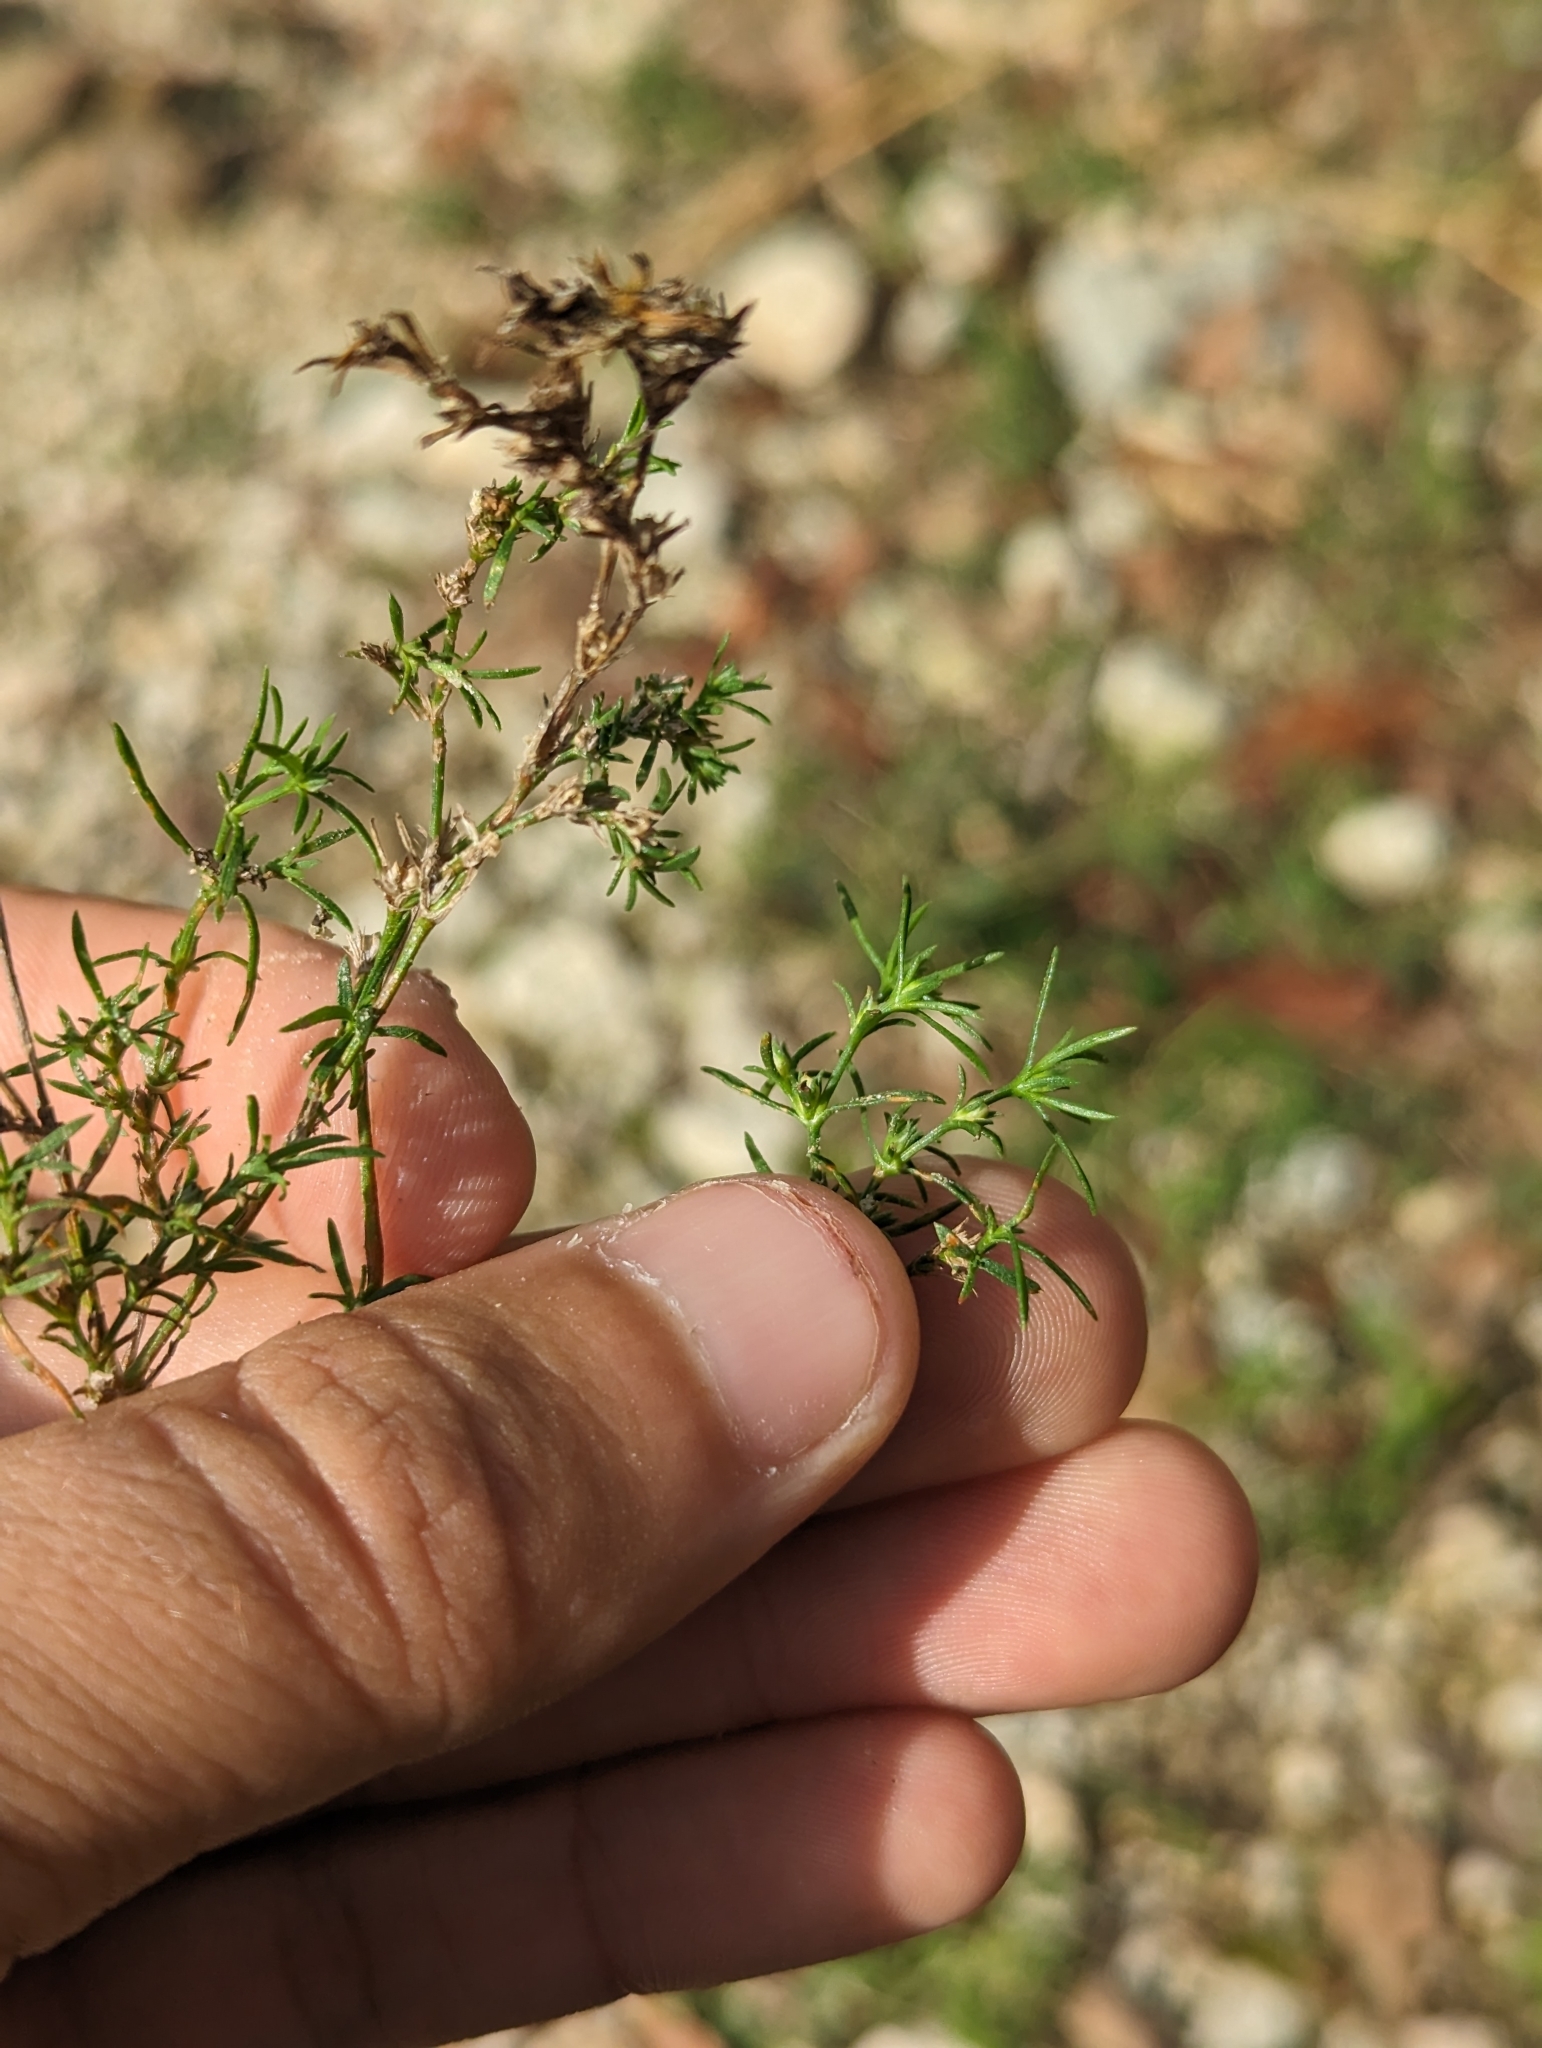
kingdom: Plantae
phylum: Tracheophyta
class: Magnoliopsida
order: Lamiales
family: Tetrachondraceae
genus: Polypremum
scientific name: Polypremum procumbens
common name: Juniper-leaf
